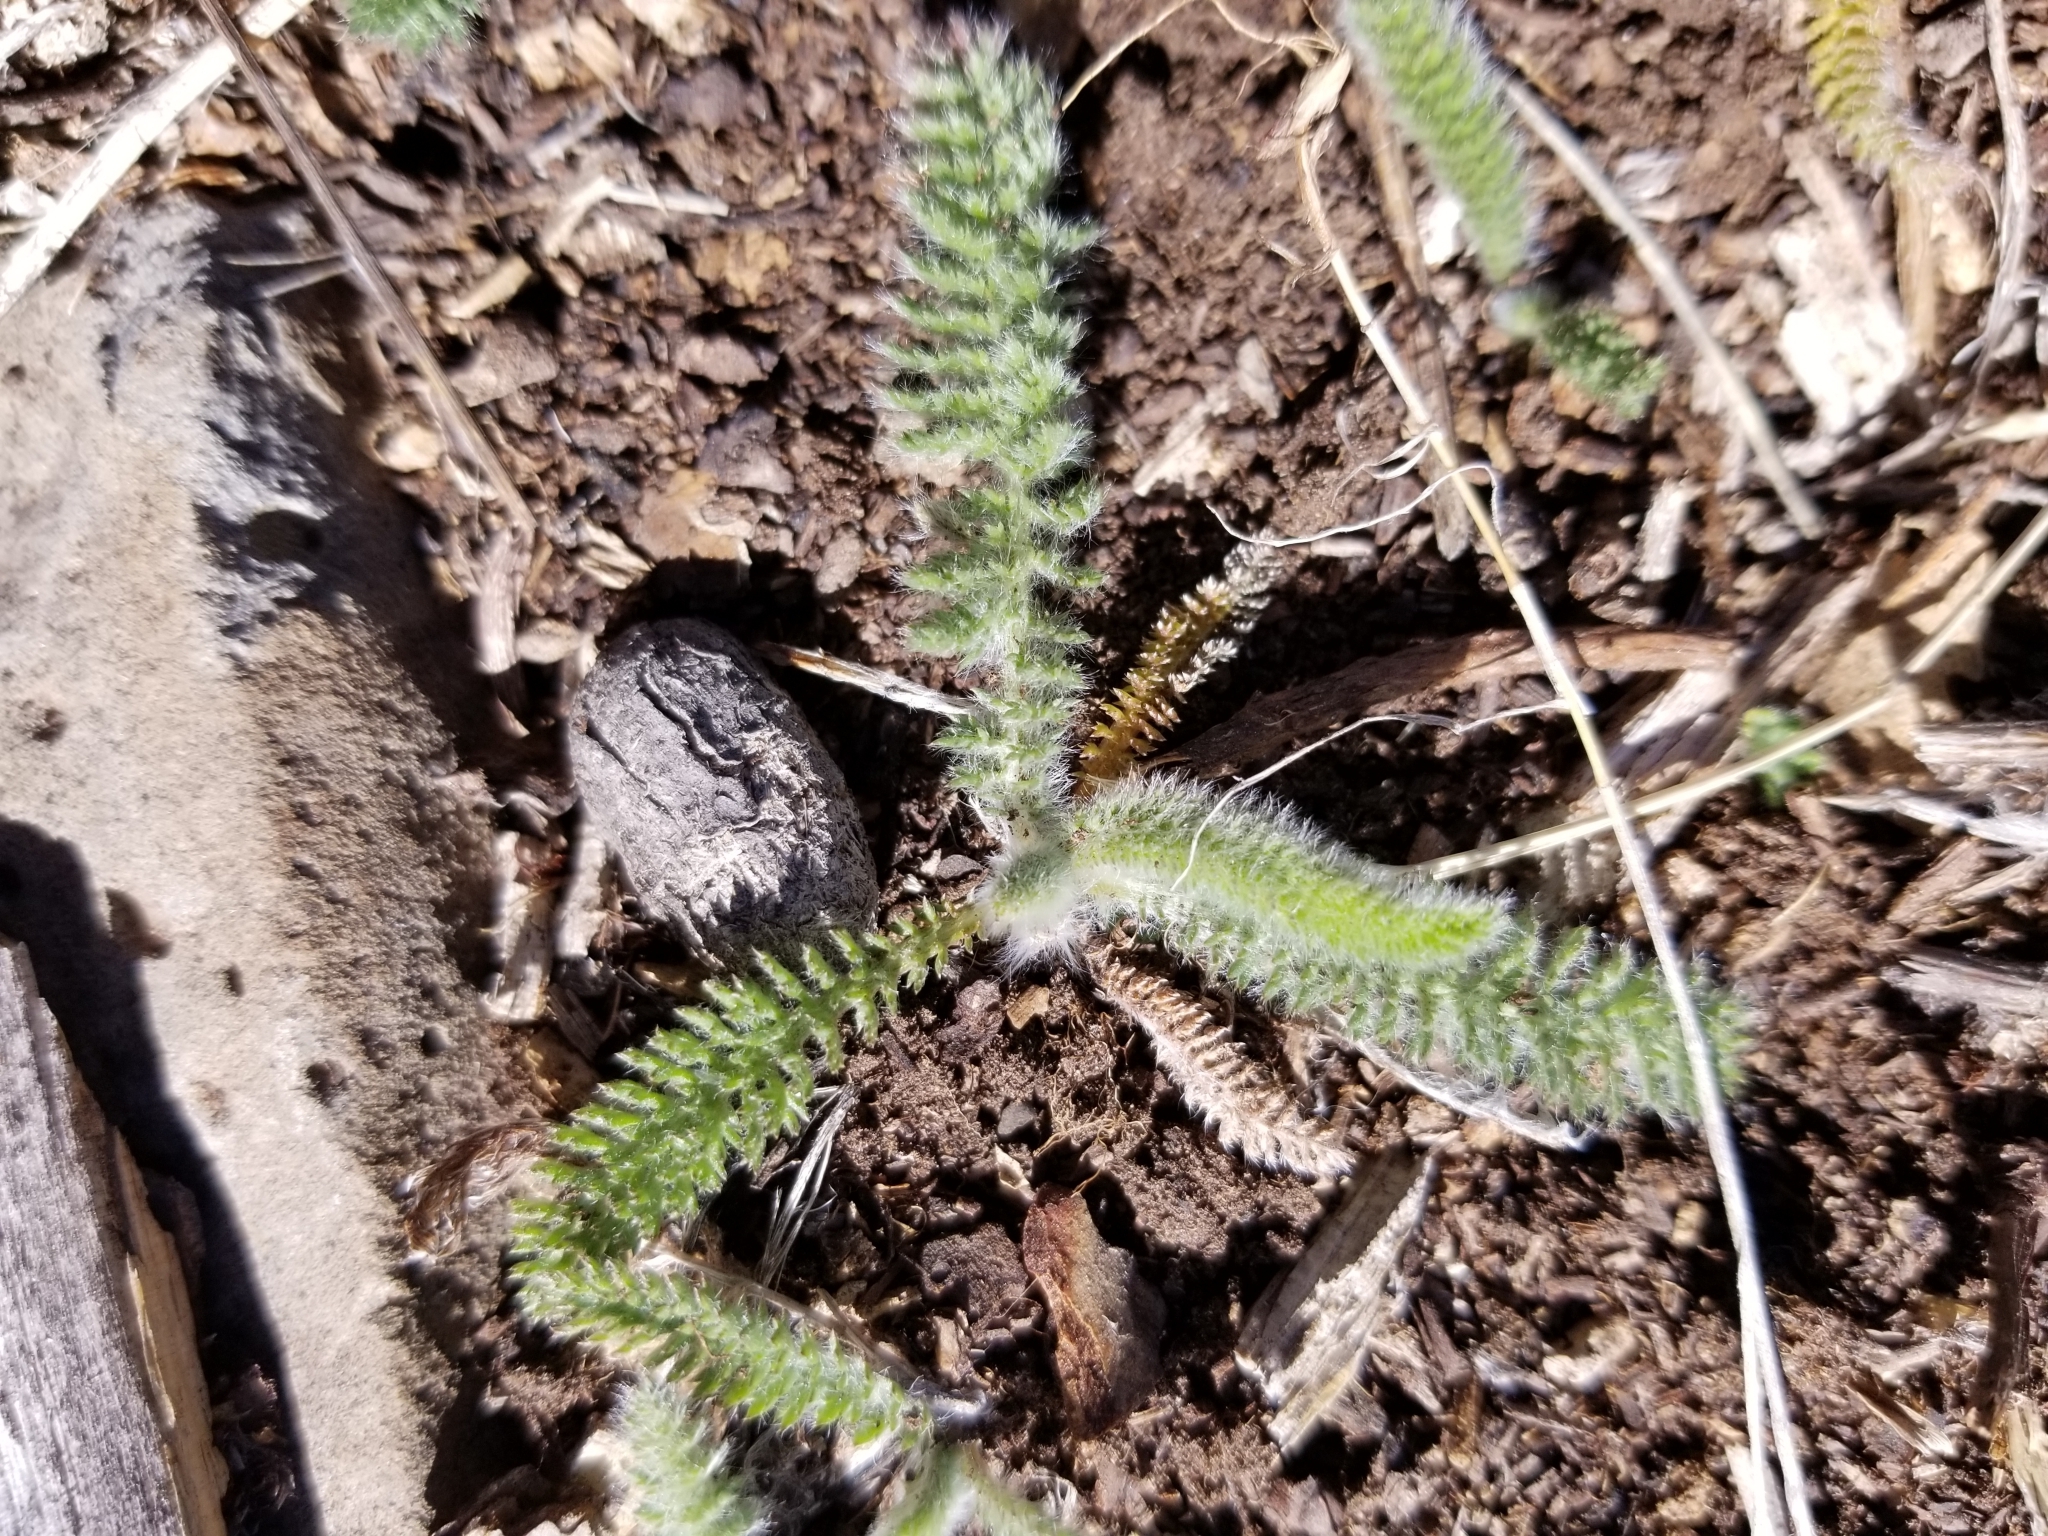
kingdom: Plantae
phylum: Tracheophyta
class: Magnoliopsida
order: Asterales
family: Asteraceae
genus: Achillea
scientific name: Achillea millefolium
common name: Yarrow
